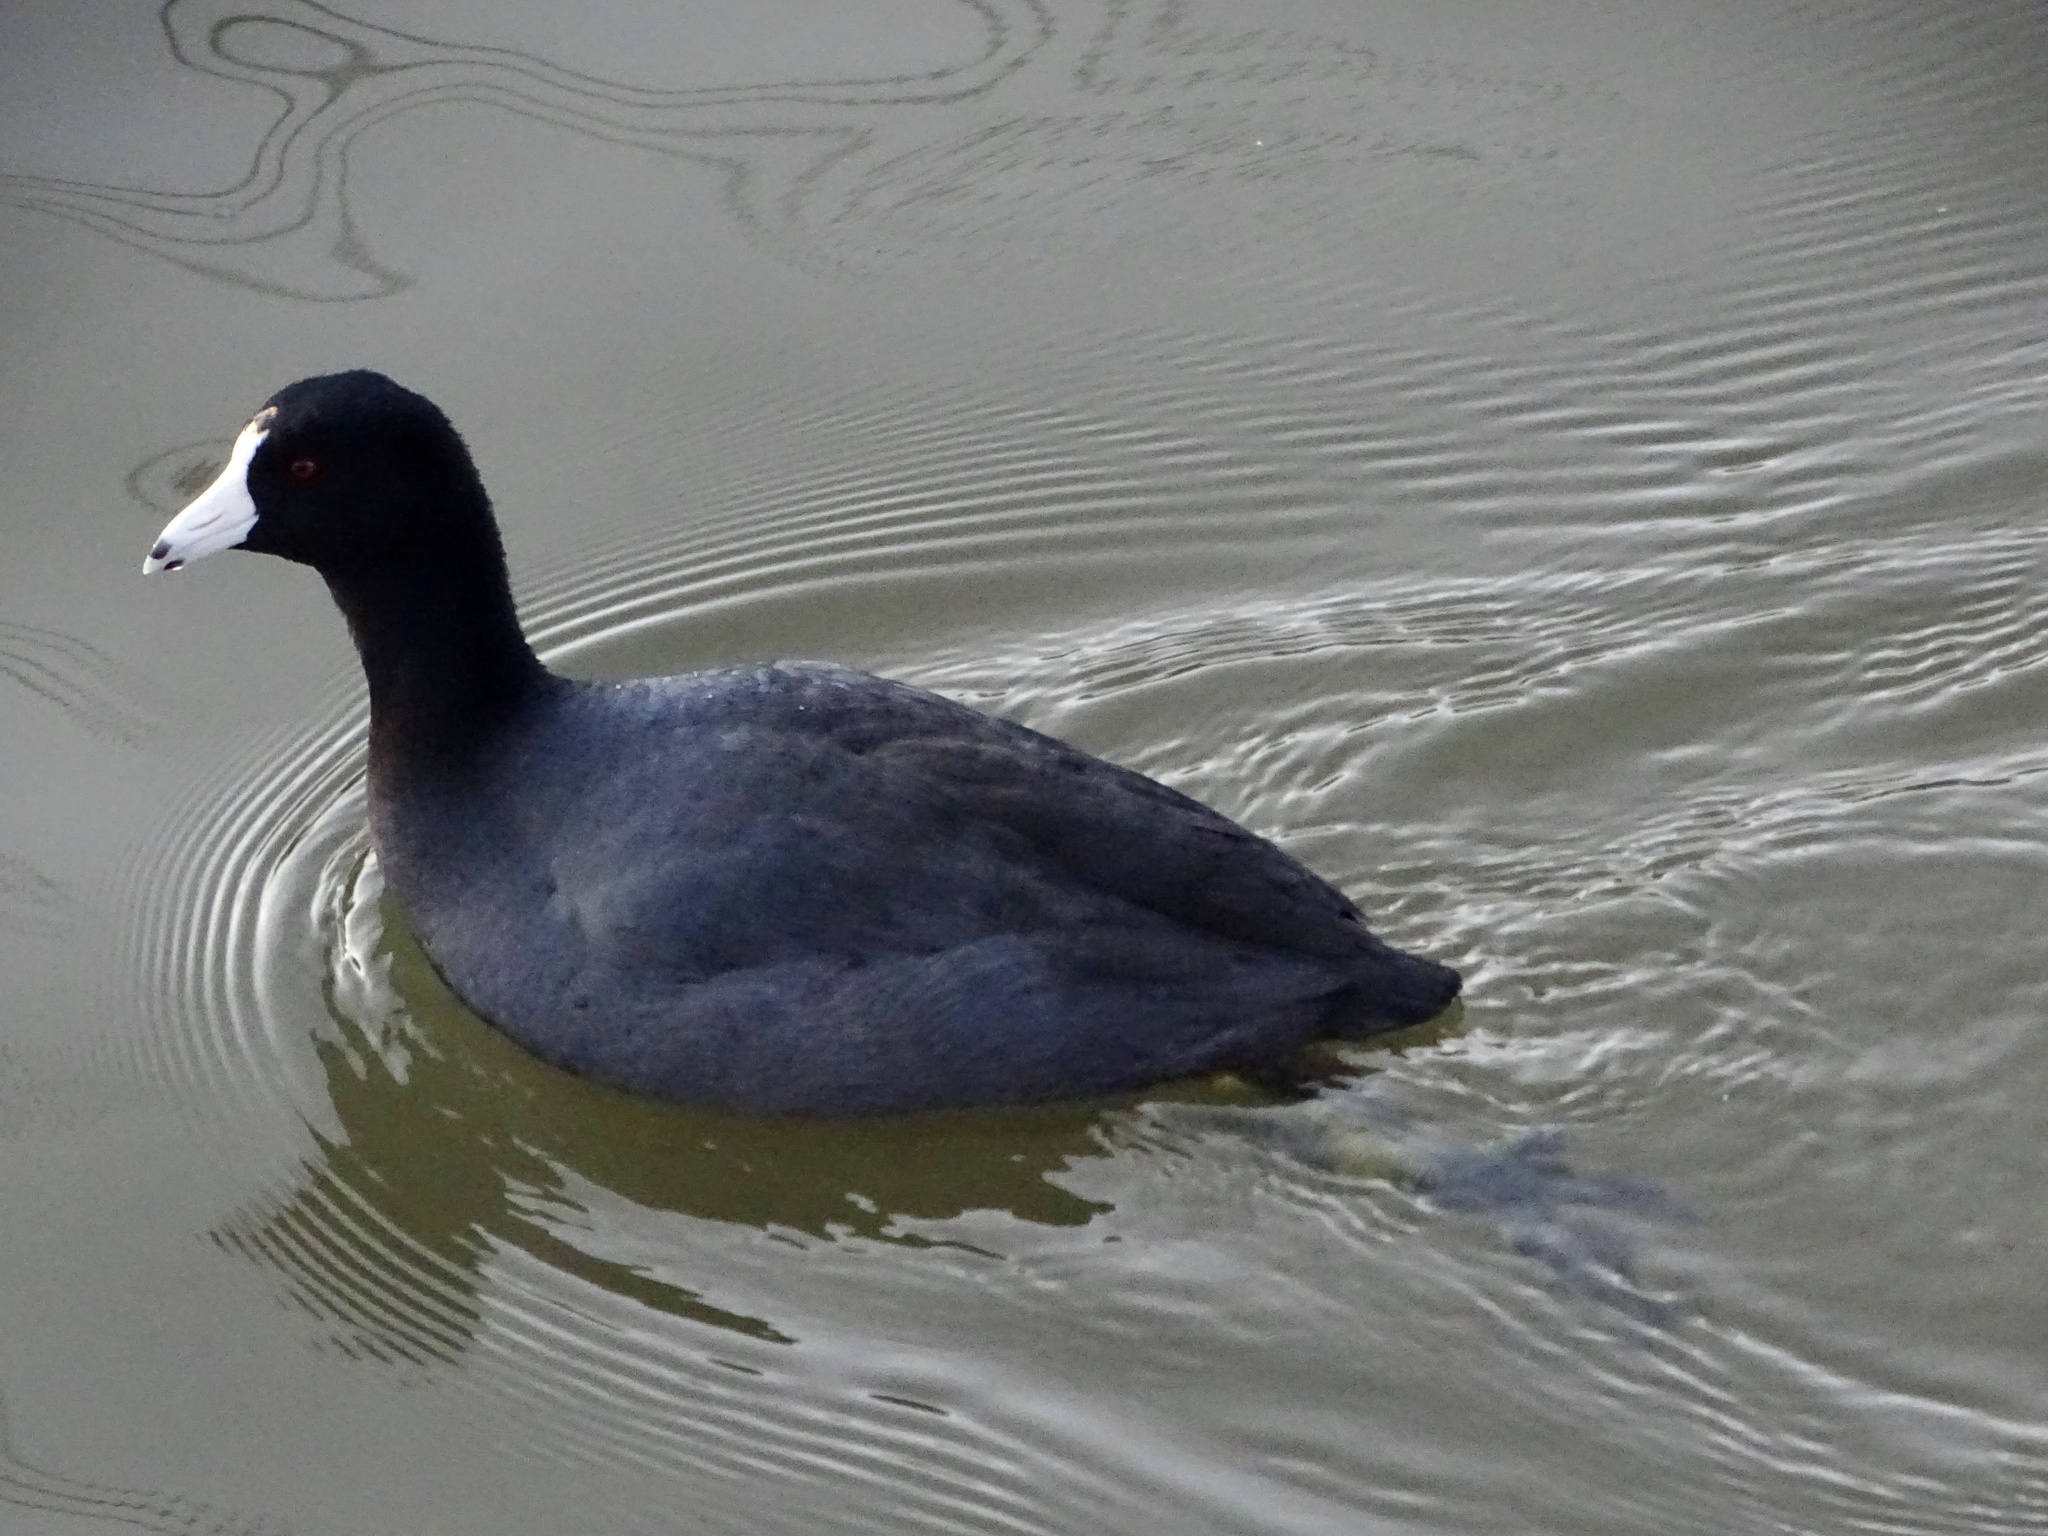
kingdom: Animalia
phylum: Chordata
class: Aves
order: Gruiformes
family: Rallidae
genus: Fulica
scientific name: Fulica americana
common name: American coot
